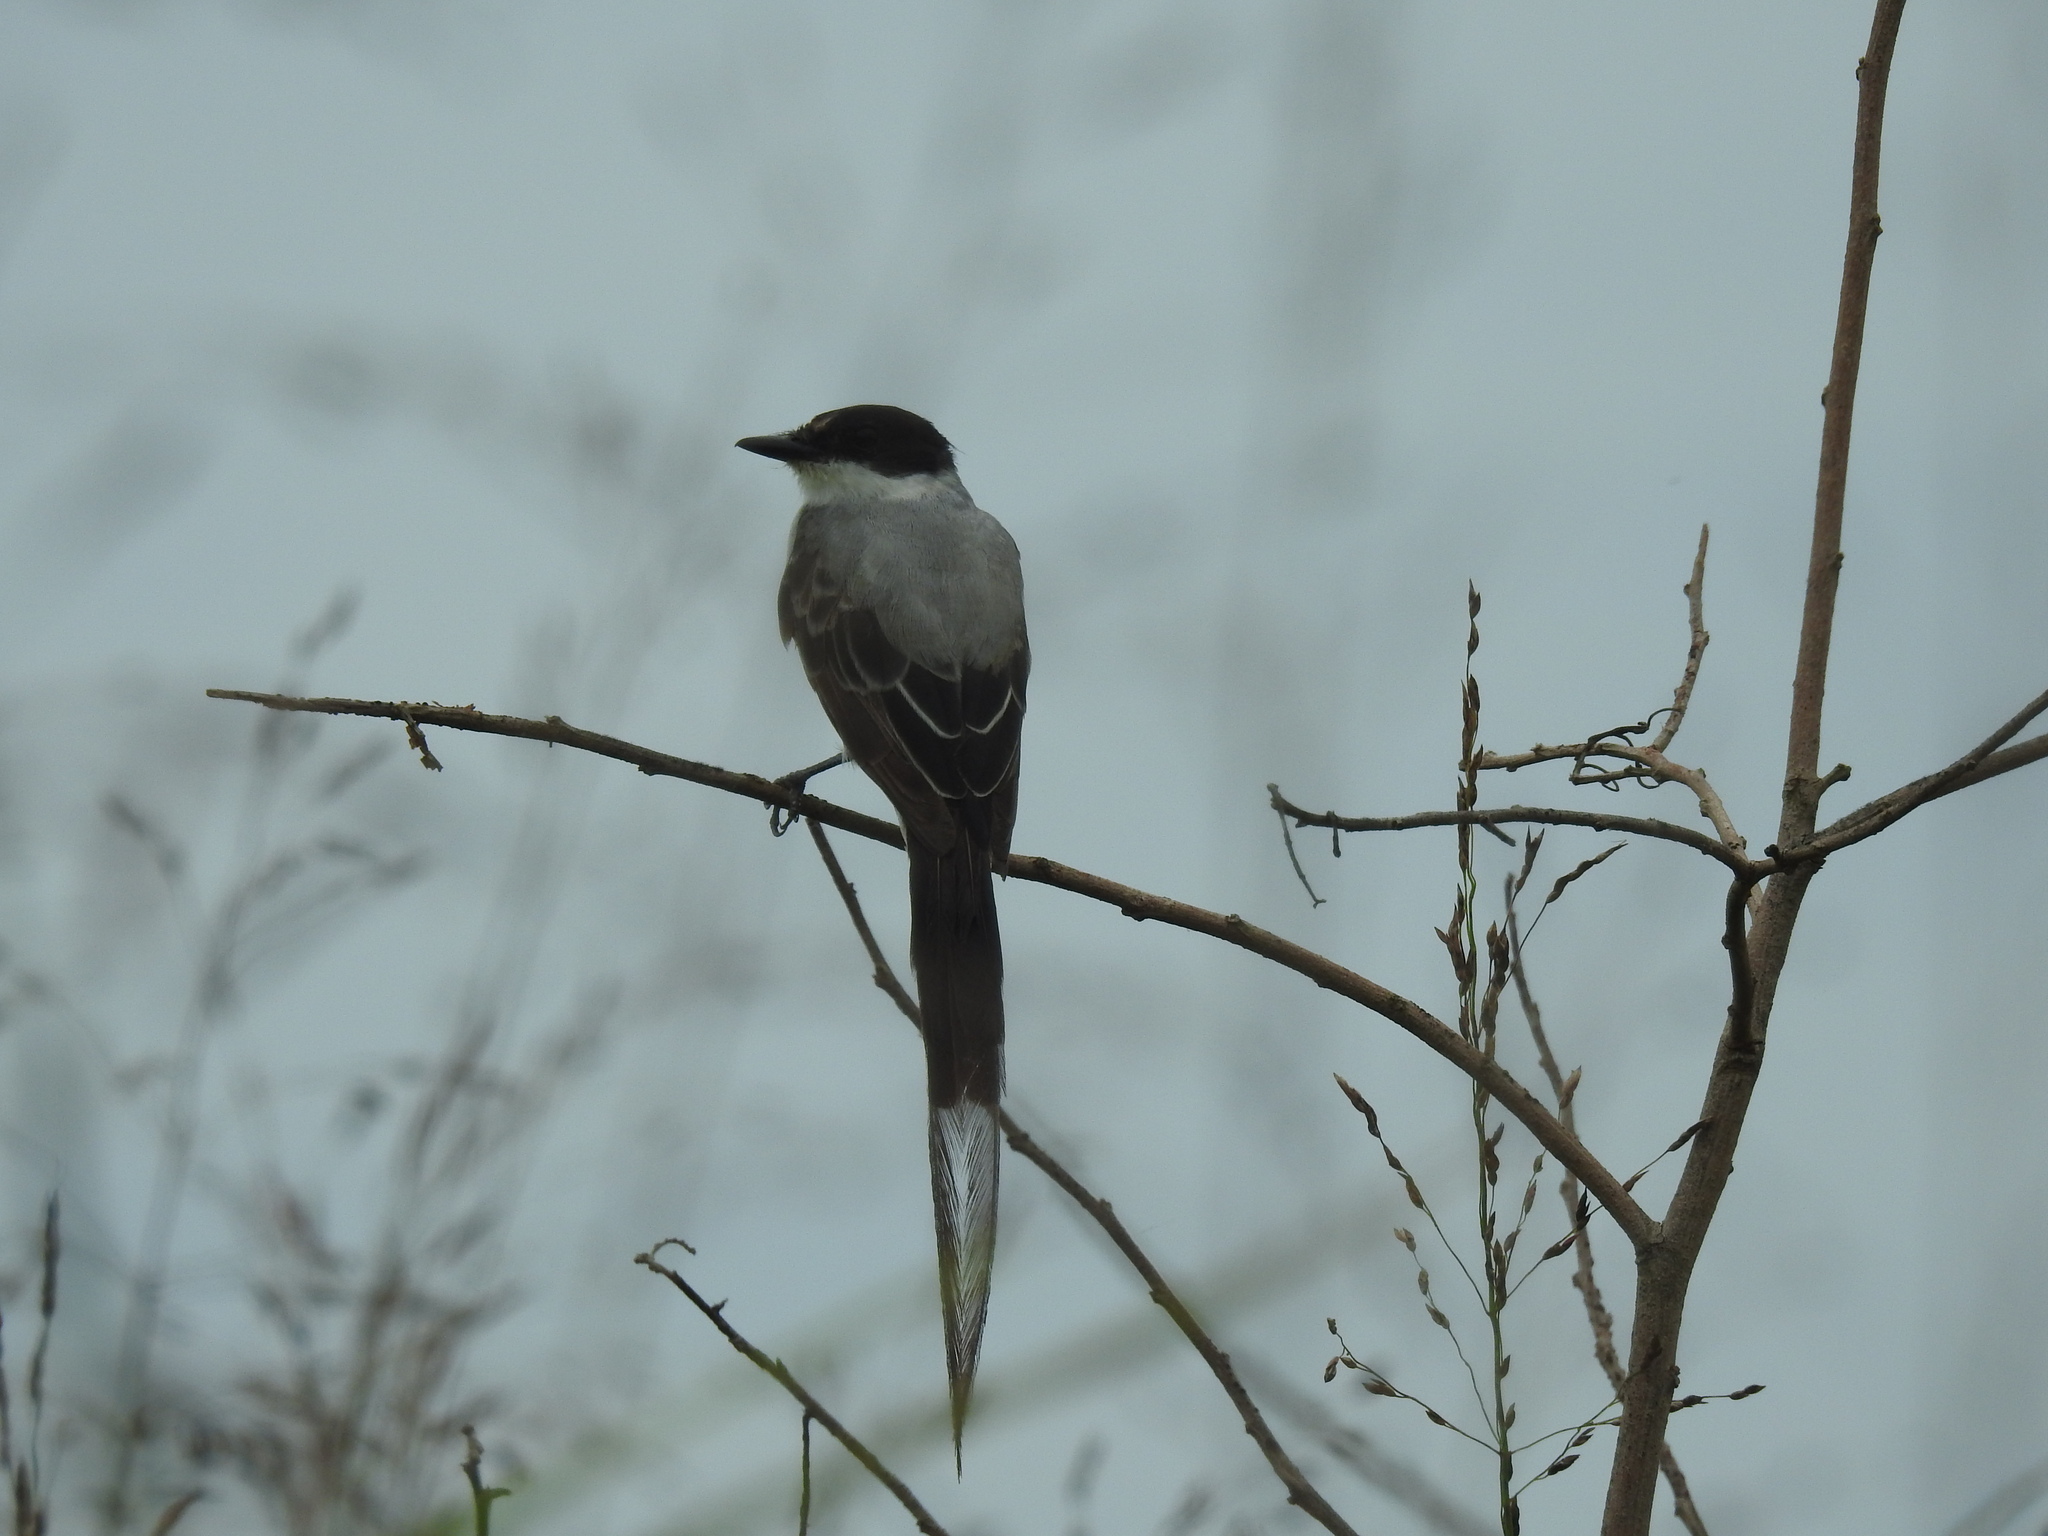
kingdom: Animalia
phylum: Chordata
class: Aves
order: Passeriformes
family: Tyrannidae
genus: Tyrannus
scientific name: Tyrannus savana
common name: Fork-tailed flycatcher
